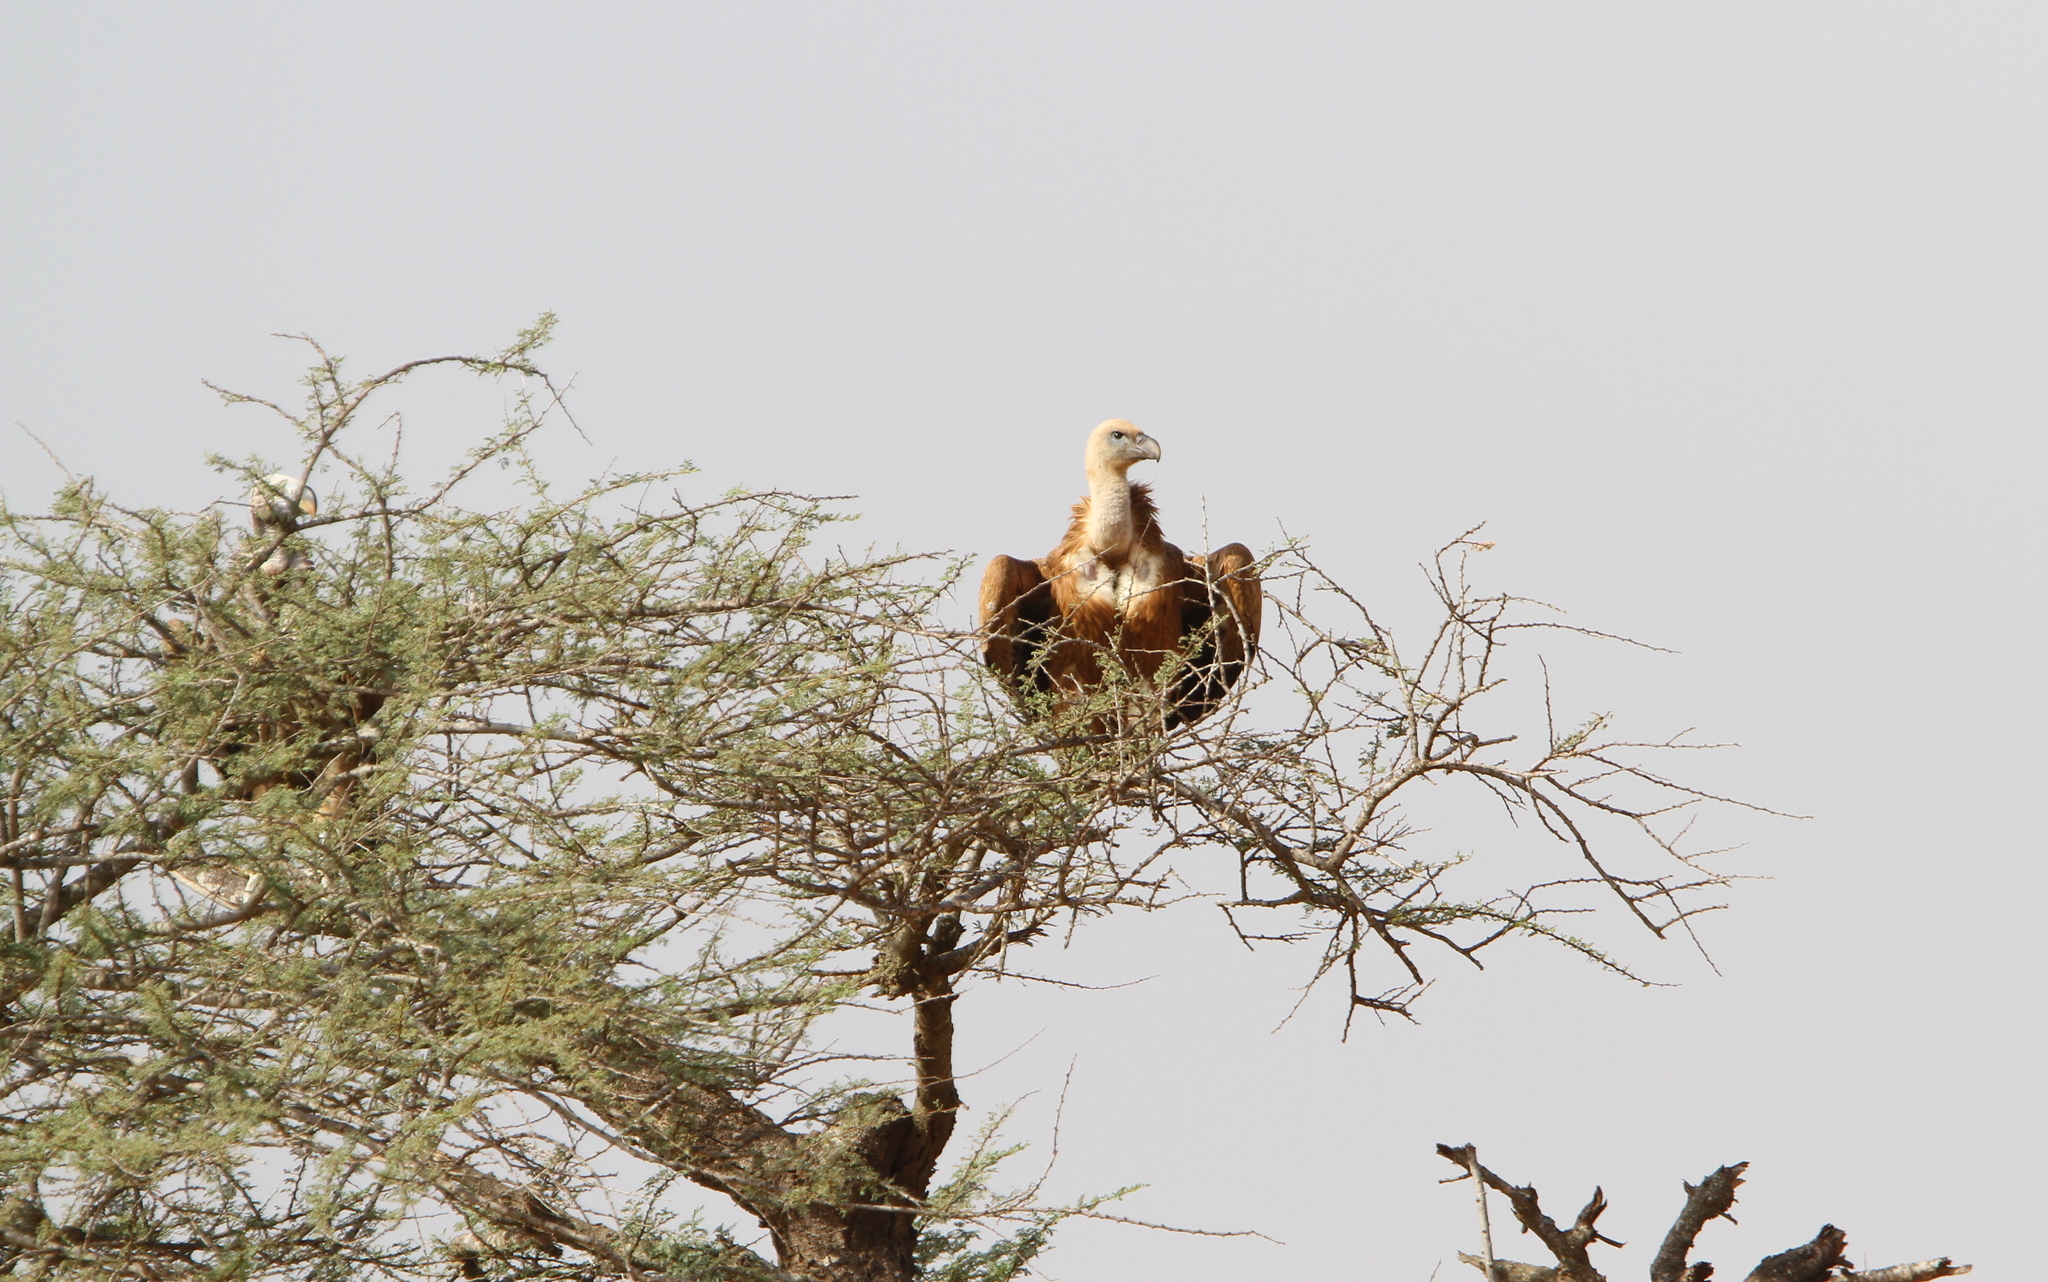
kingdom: Animalia
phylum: Chordata
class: Aves
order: Accipitriformes
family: Accipitridae
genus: Gyps
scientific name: Gyps fulvus
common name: Griffon vulture
